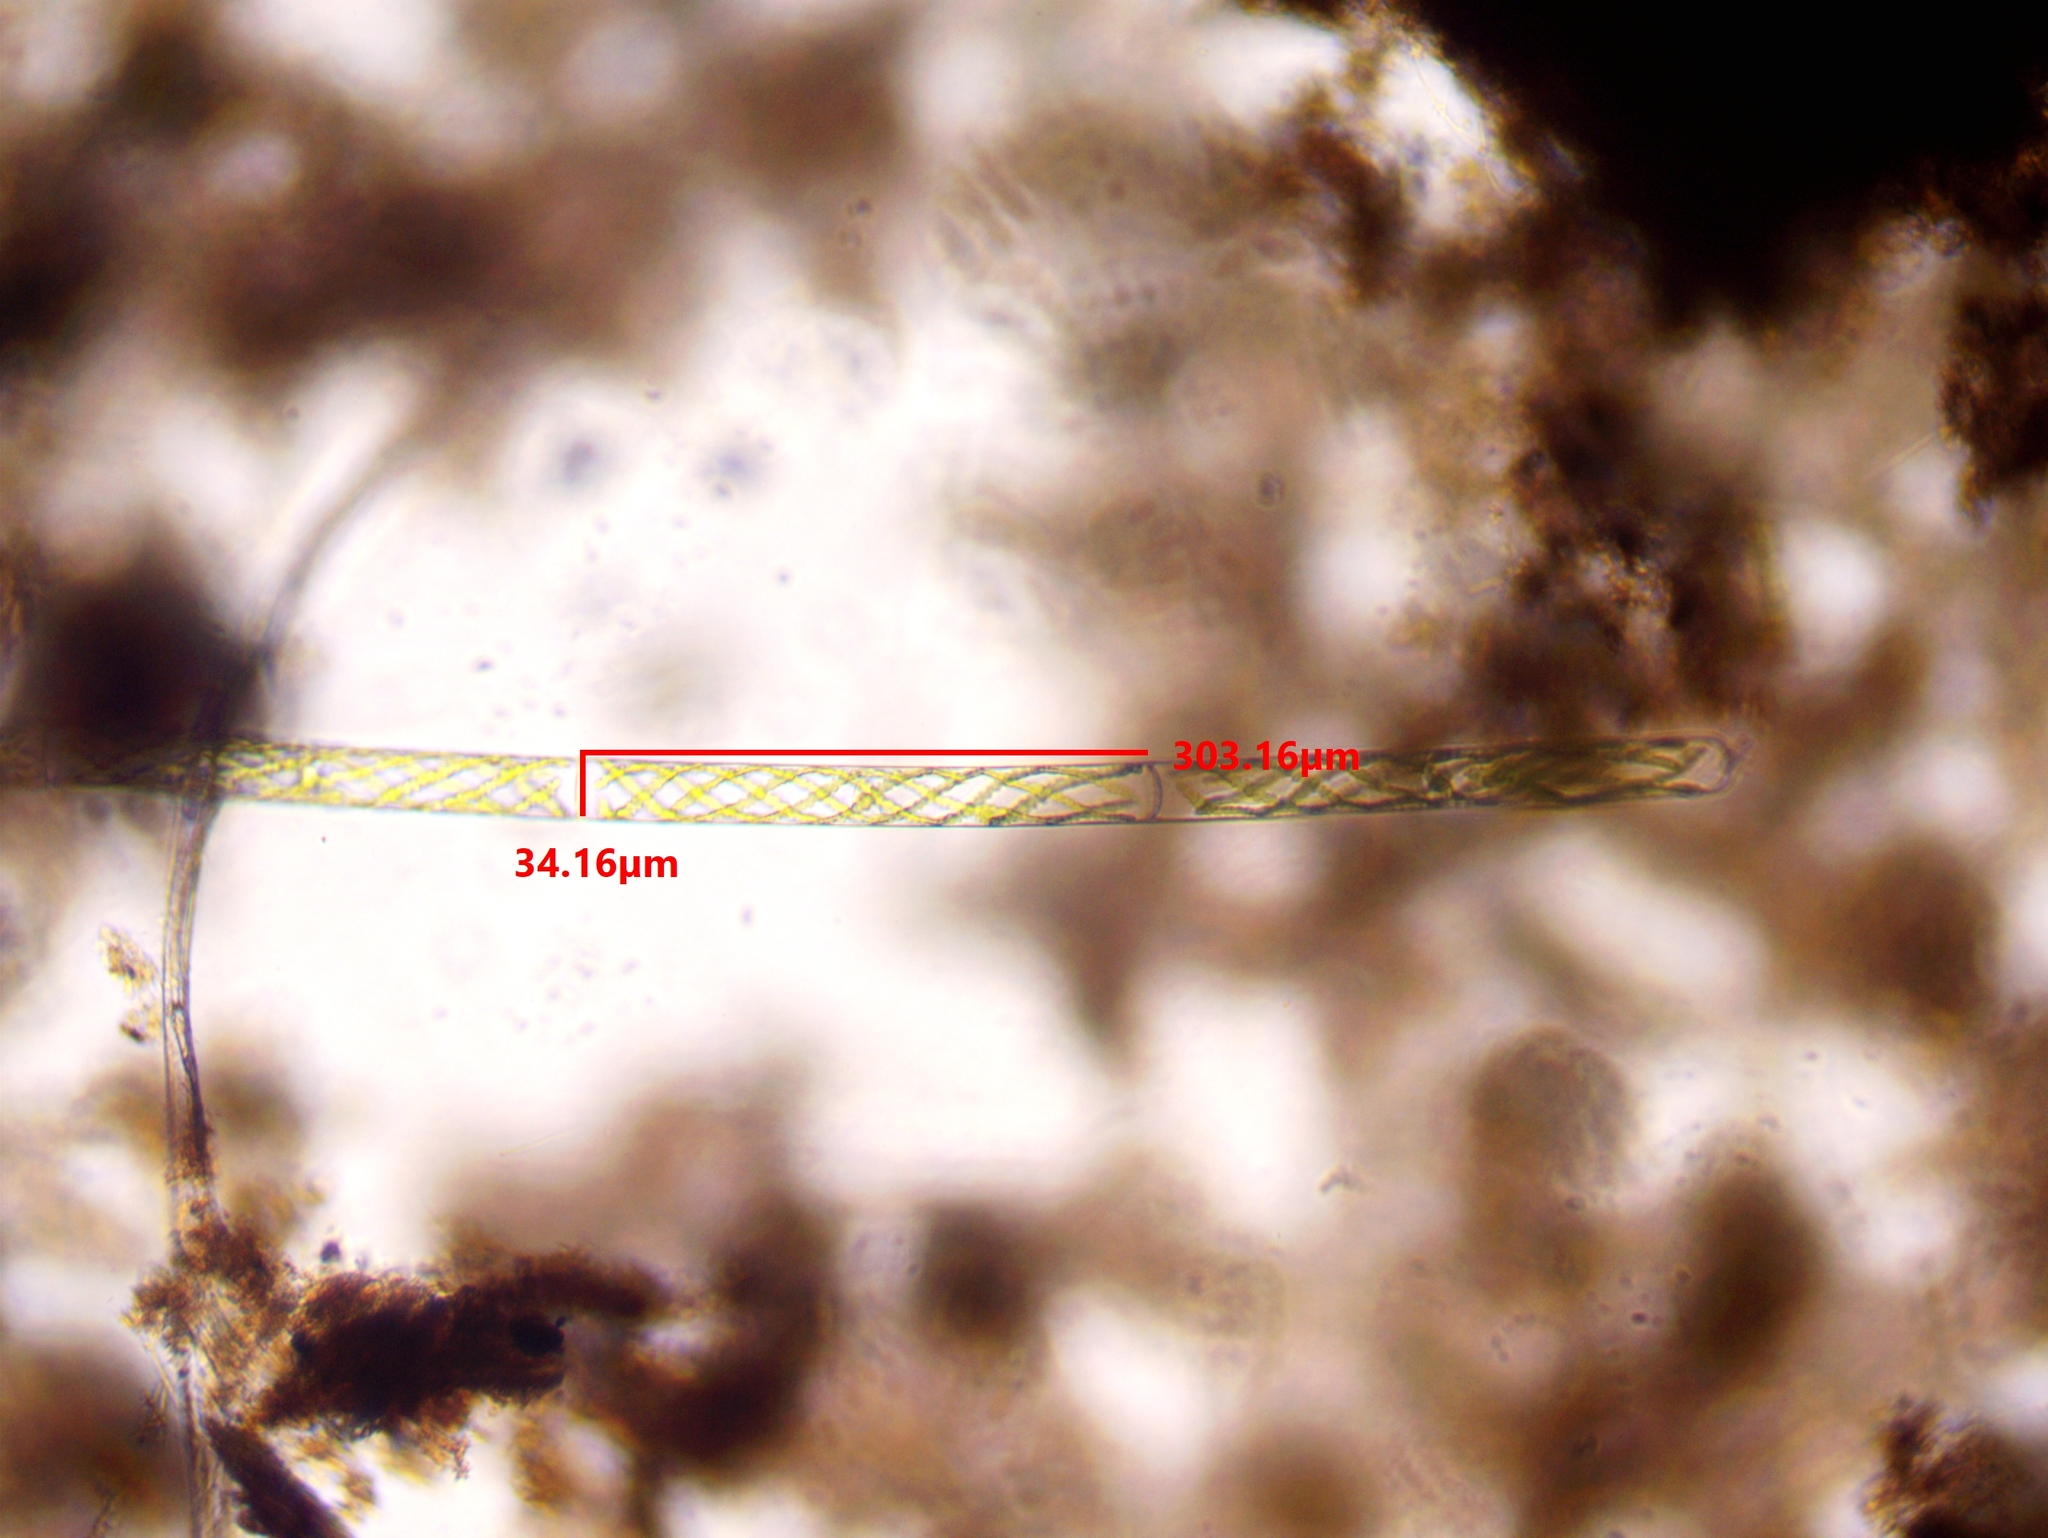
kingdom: Plantae
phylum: Charophyta
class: Zygnematophyceae
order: Zygnematales
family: Zygnemataceae
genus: Spirogyra
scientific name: Spirogyra
